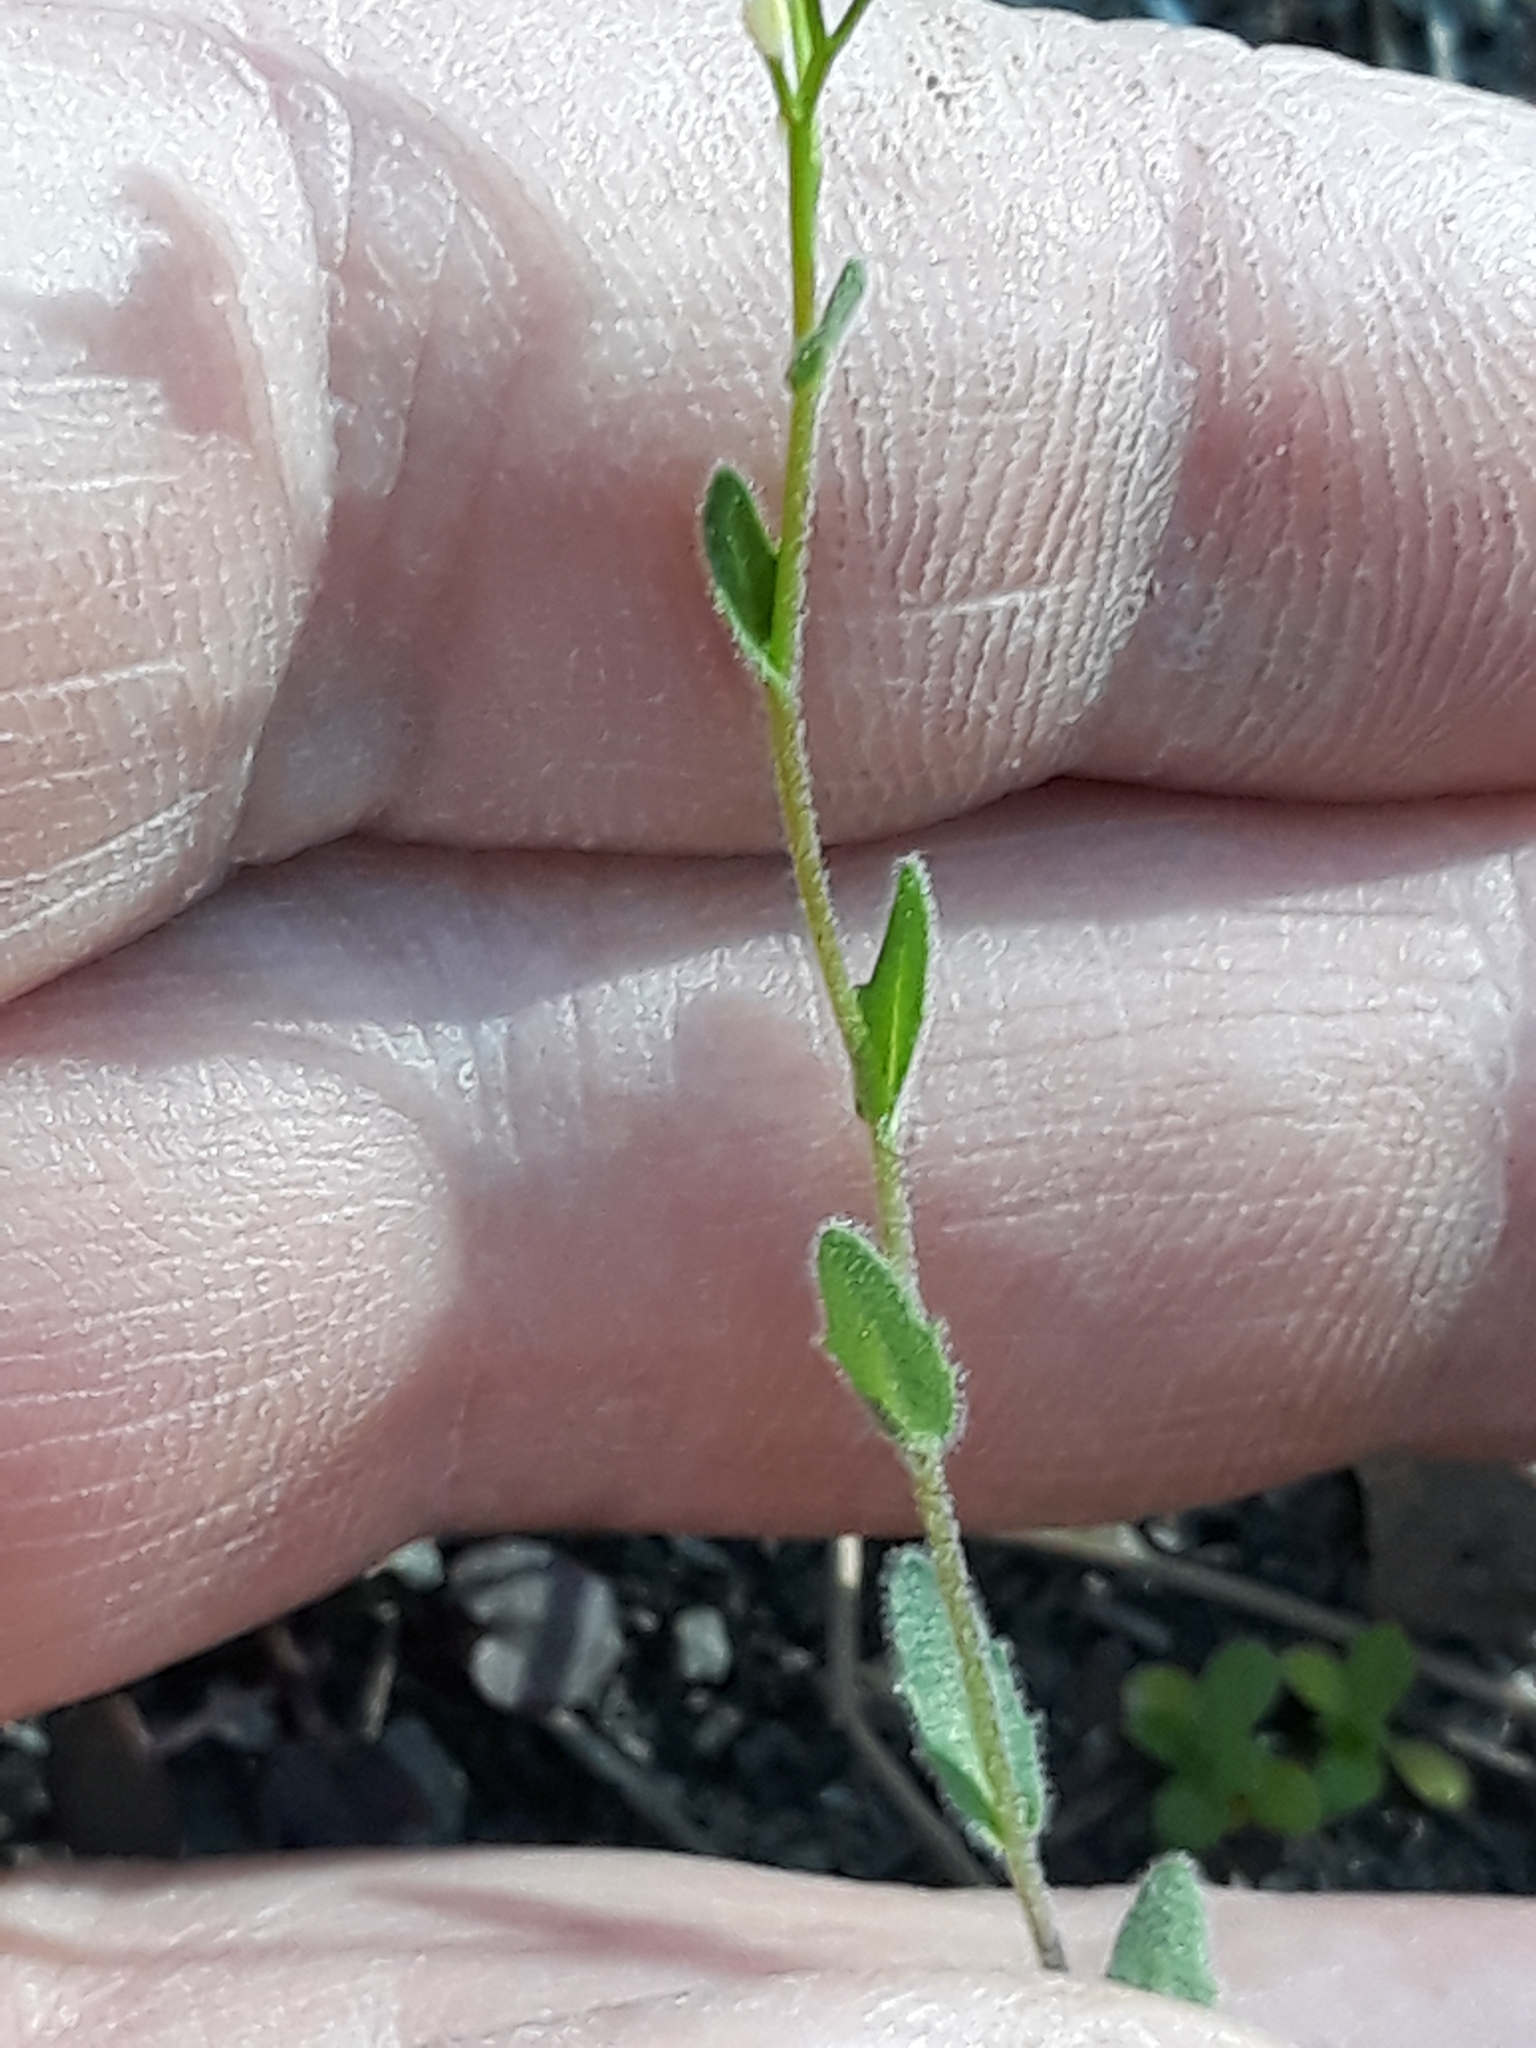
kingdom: Plantae
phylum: Tracheophyta
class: Magnoliopsida
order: Brassicales
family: Brassicaceae
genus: Arabis
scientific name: Arabis auriculata
